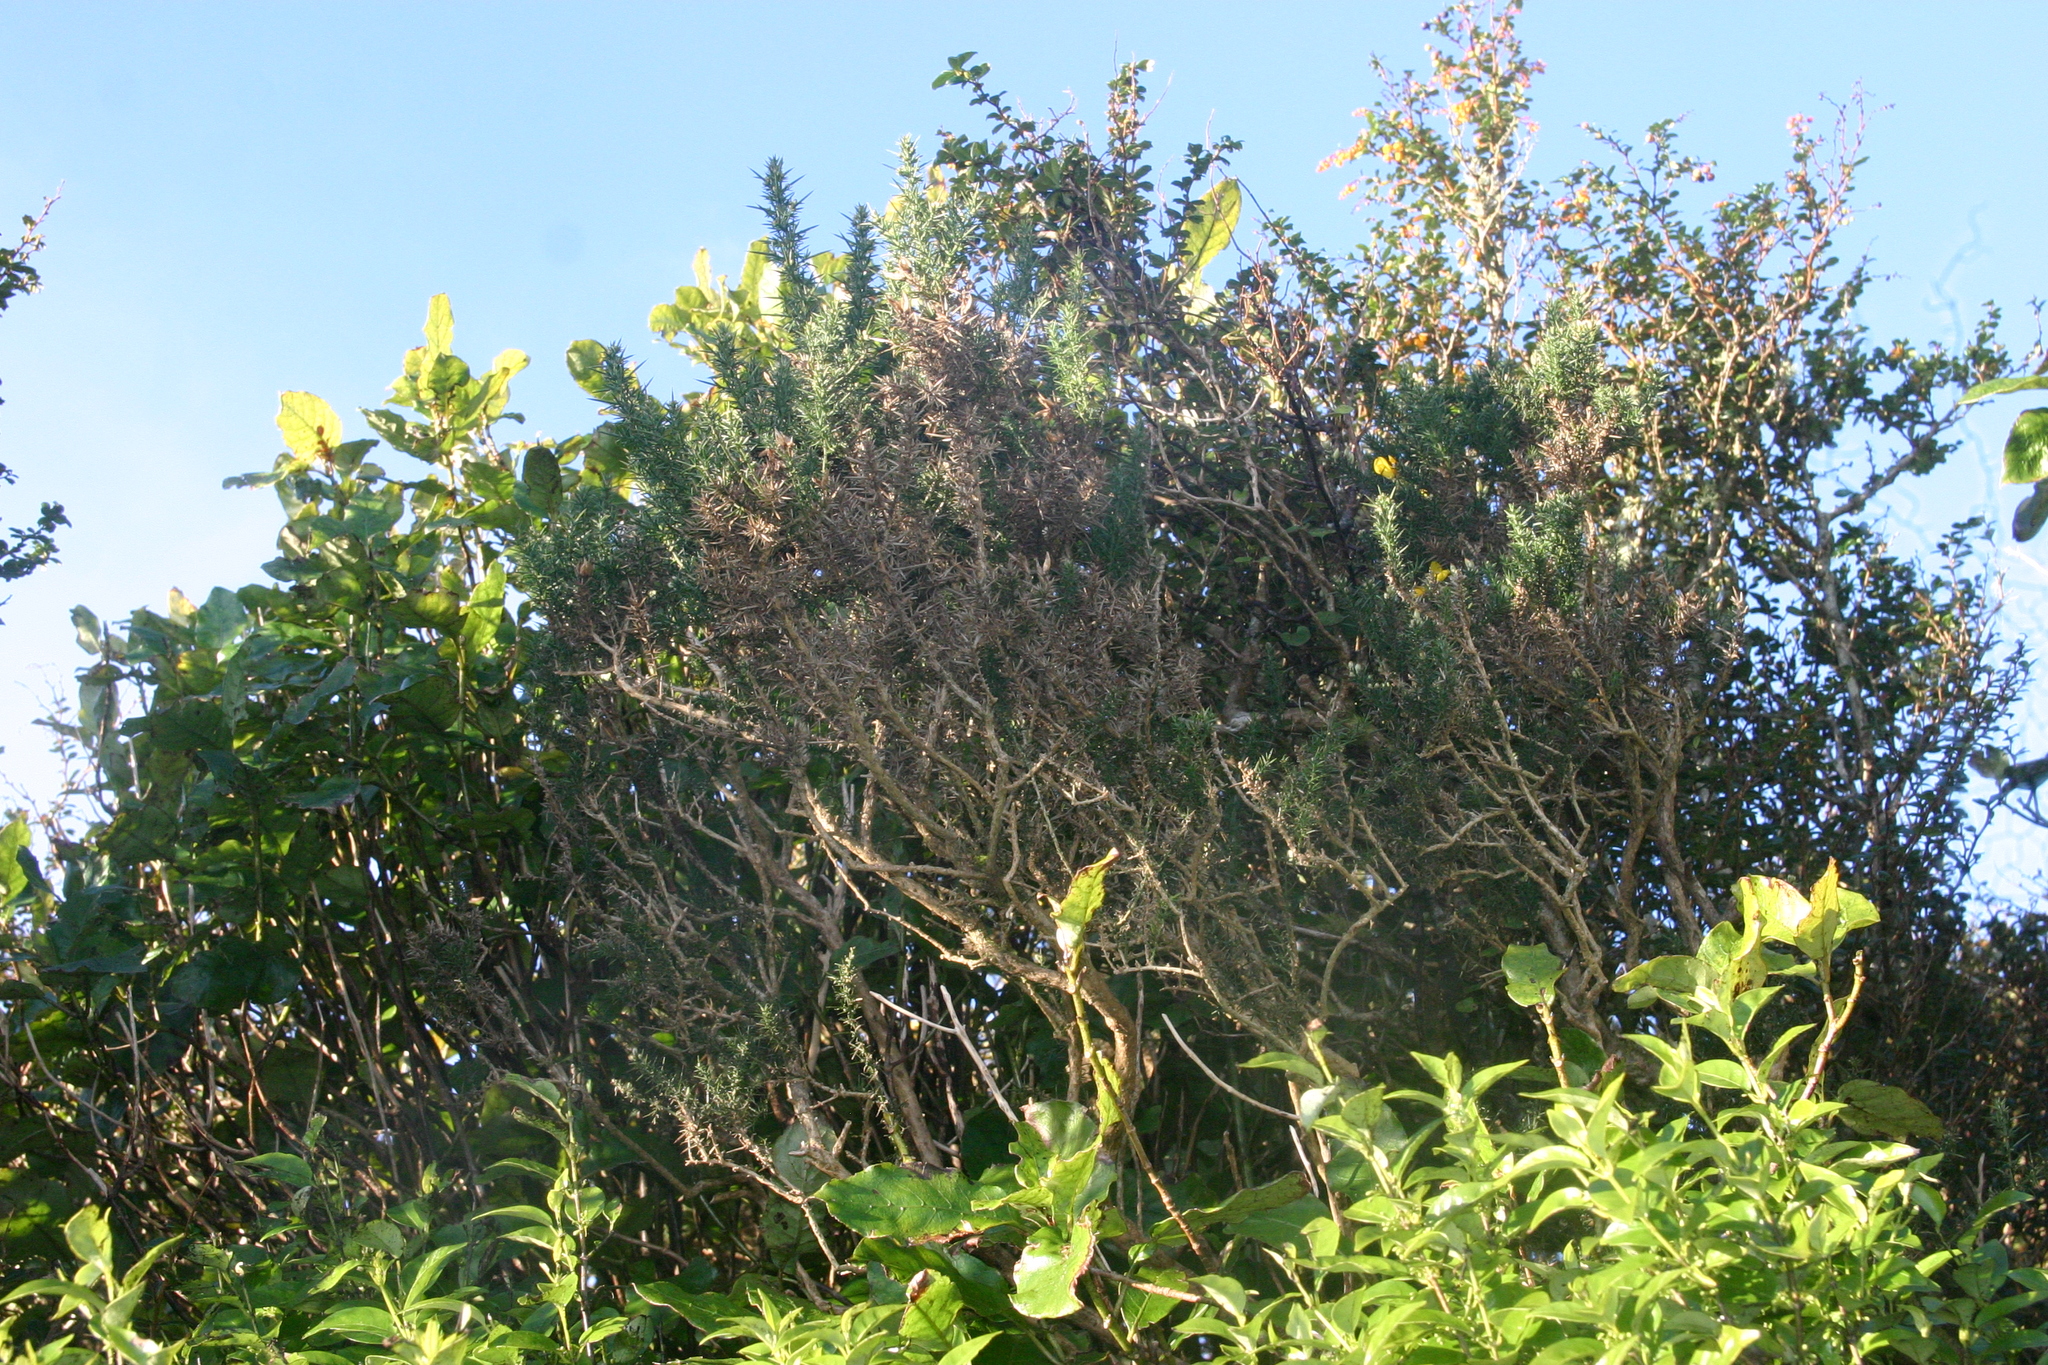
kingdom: Plantae
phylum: Tracheophyta
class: Magnoliopsida
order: Fabales
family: Fabaceae
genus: Ulex
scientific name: Ulex europaeus
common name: Common gorse
